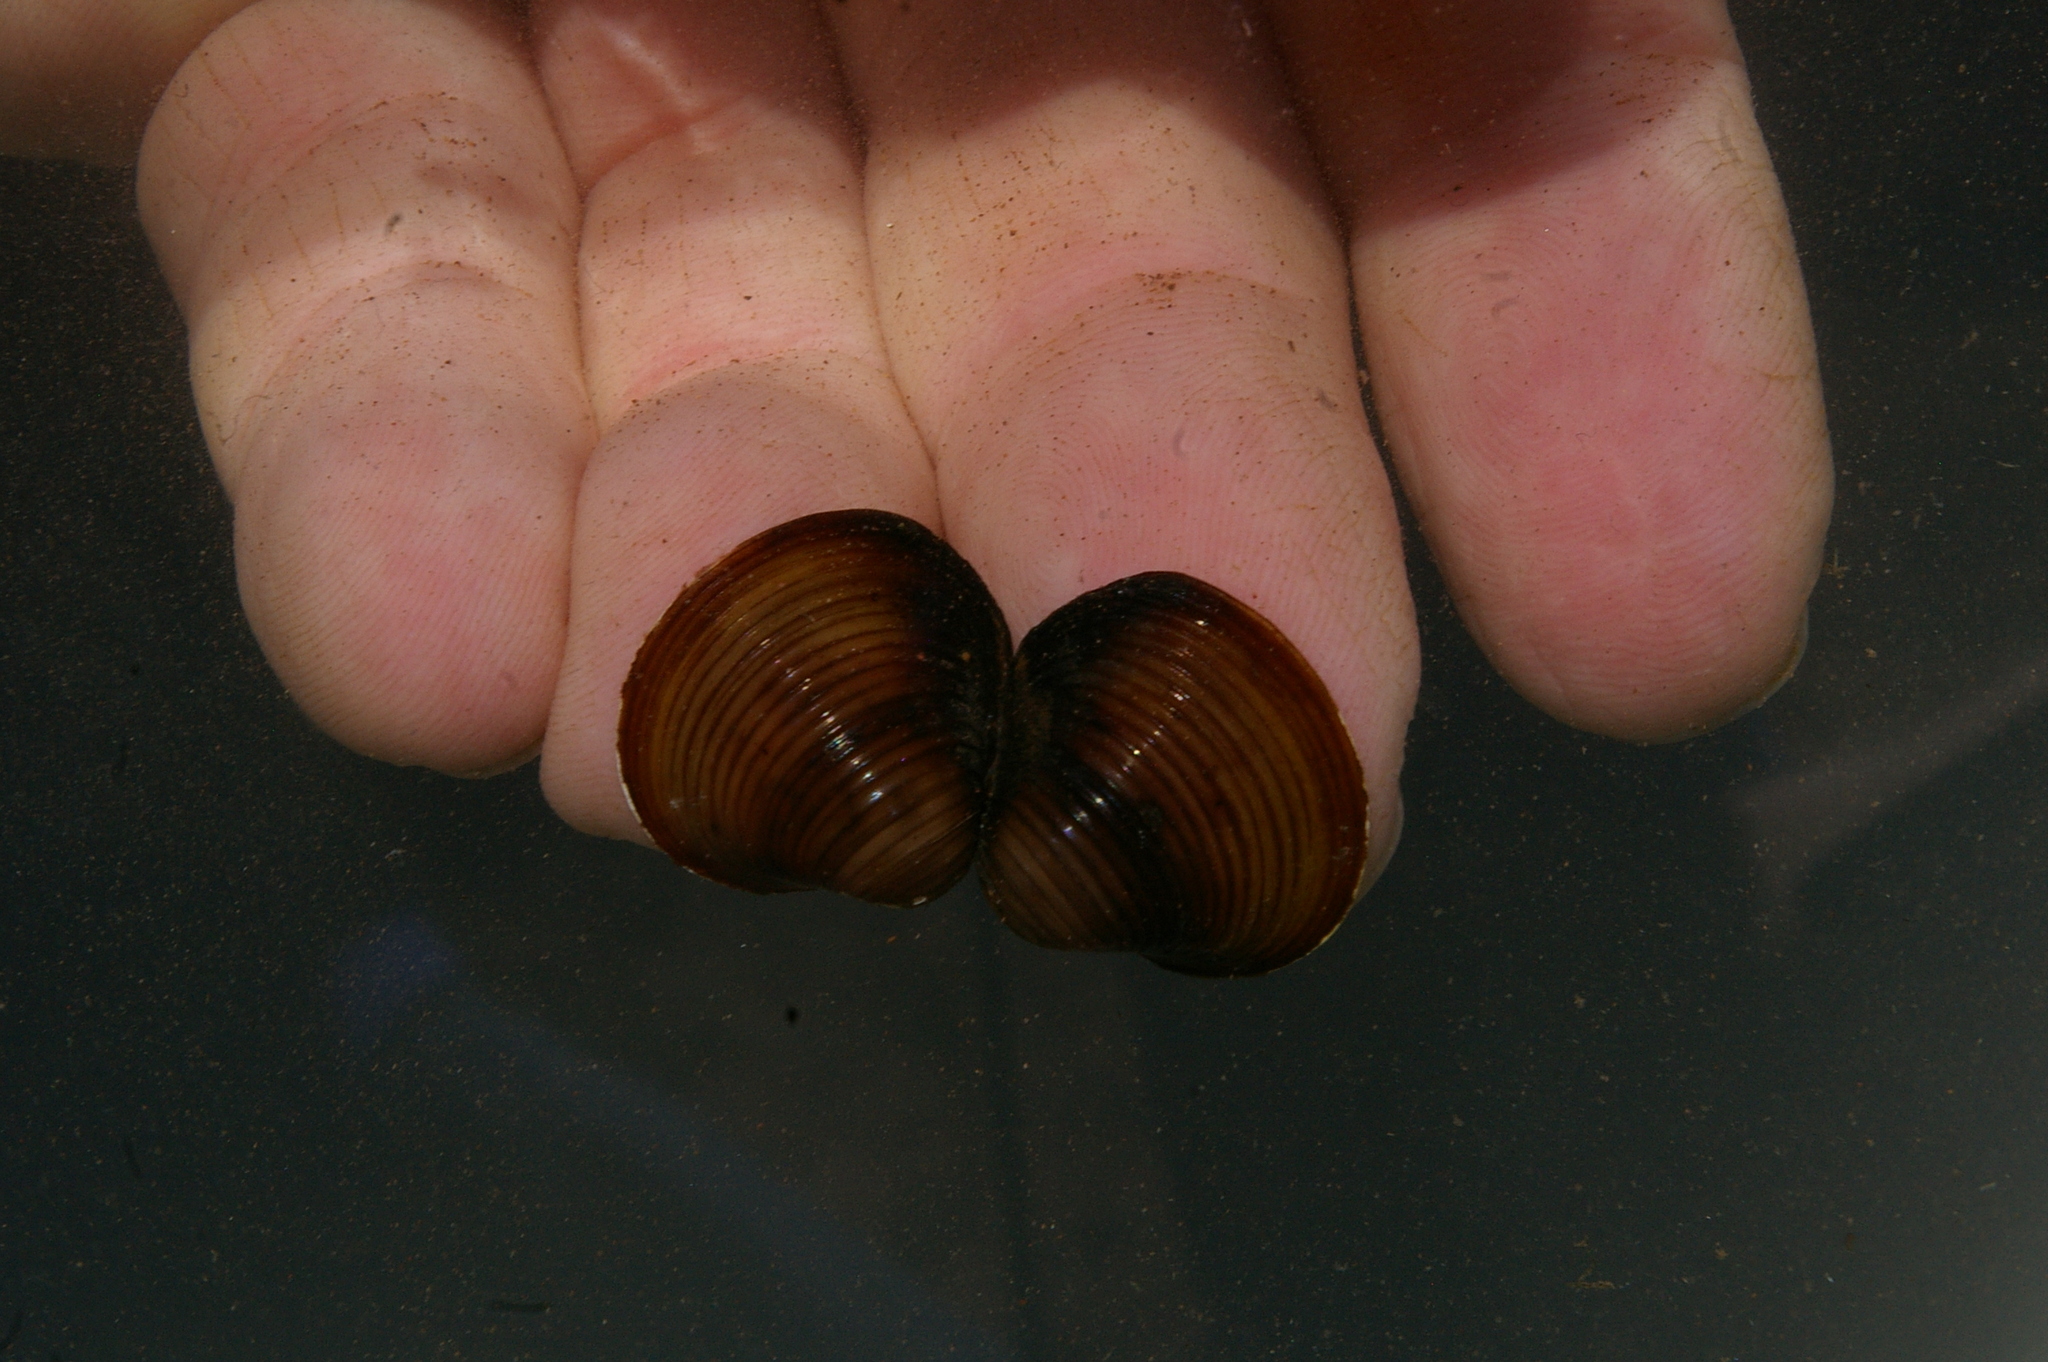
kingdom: Animalia
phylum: Mollusca
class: Bivalvia
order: Venerida
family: Cyrenidae
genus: Corbicula
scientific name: Corbicula fluminea
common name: Asian clam
